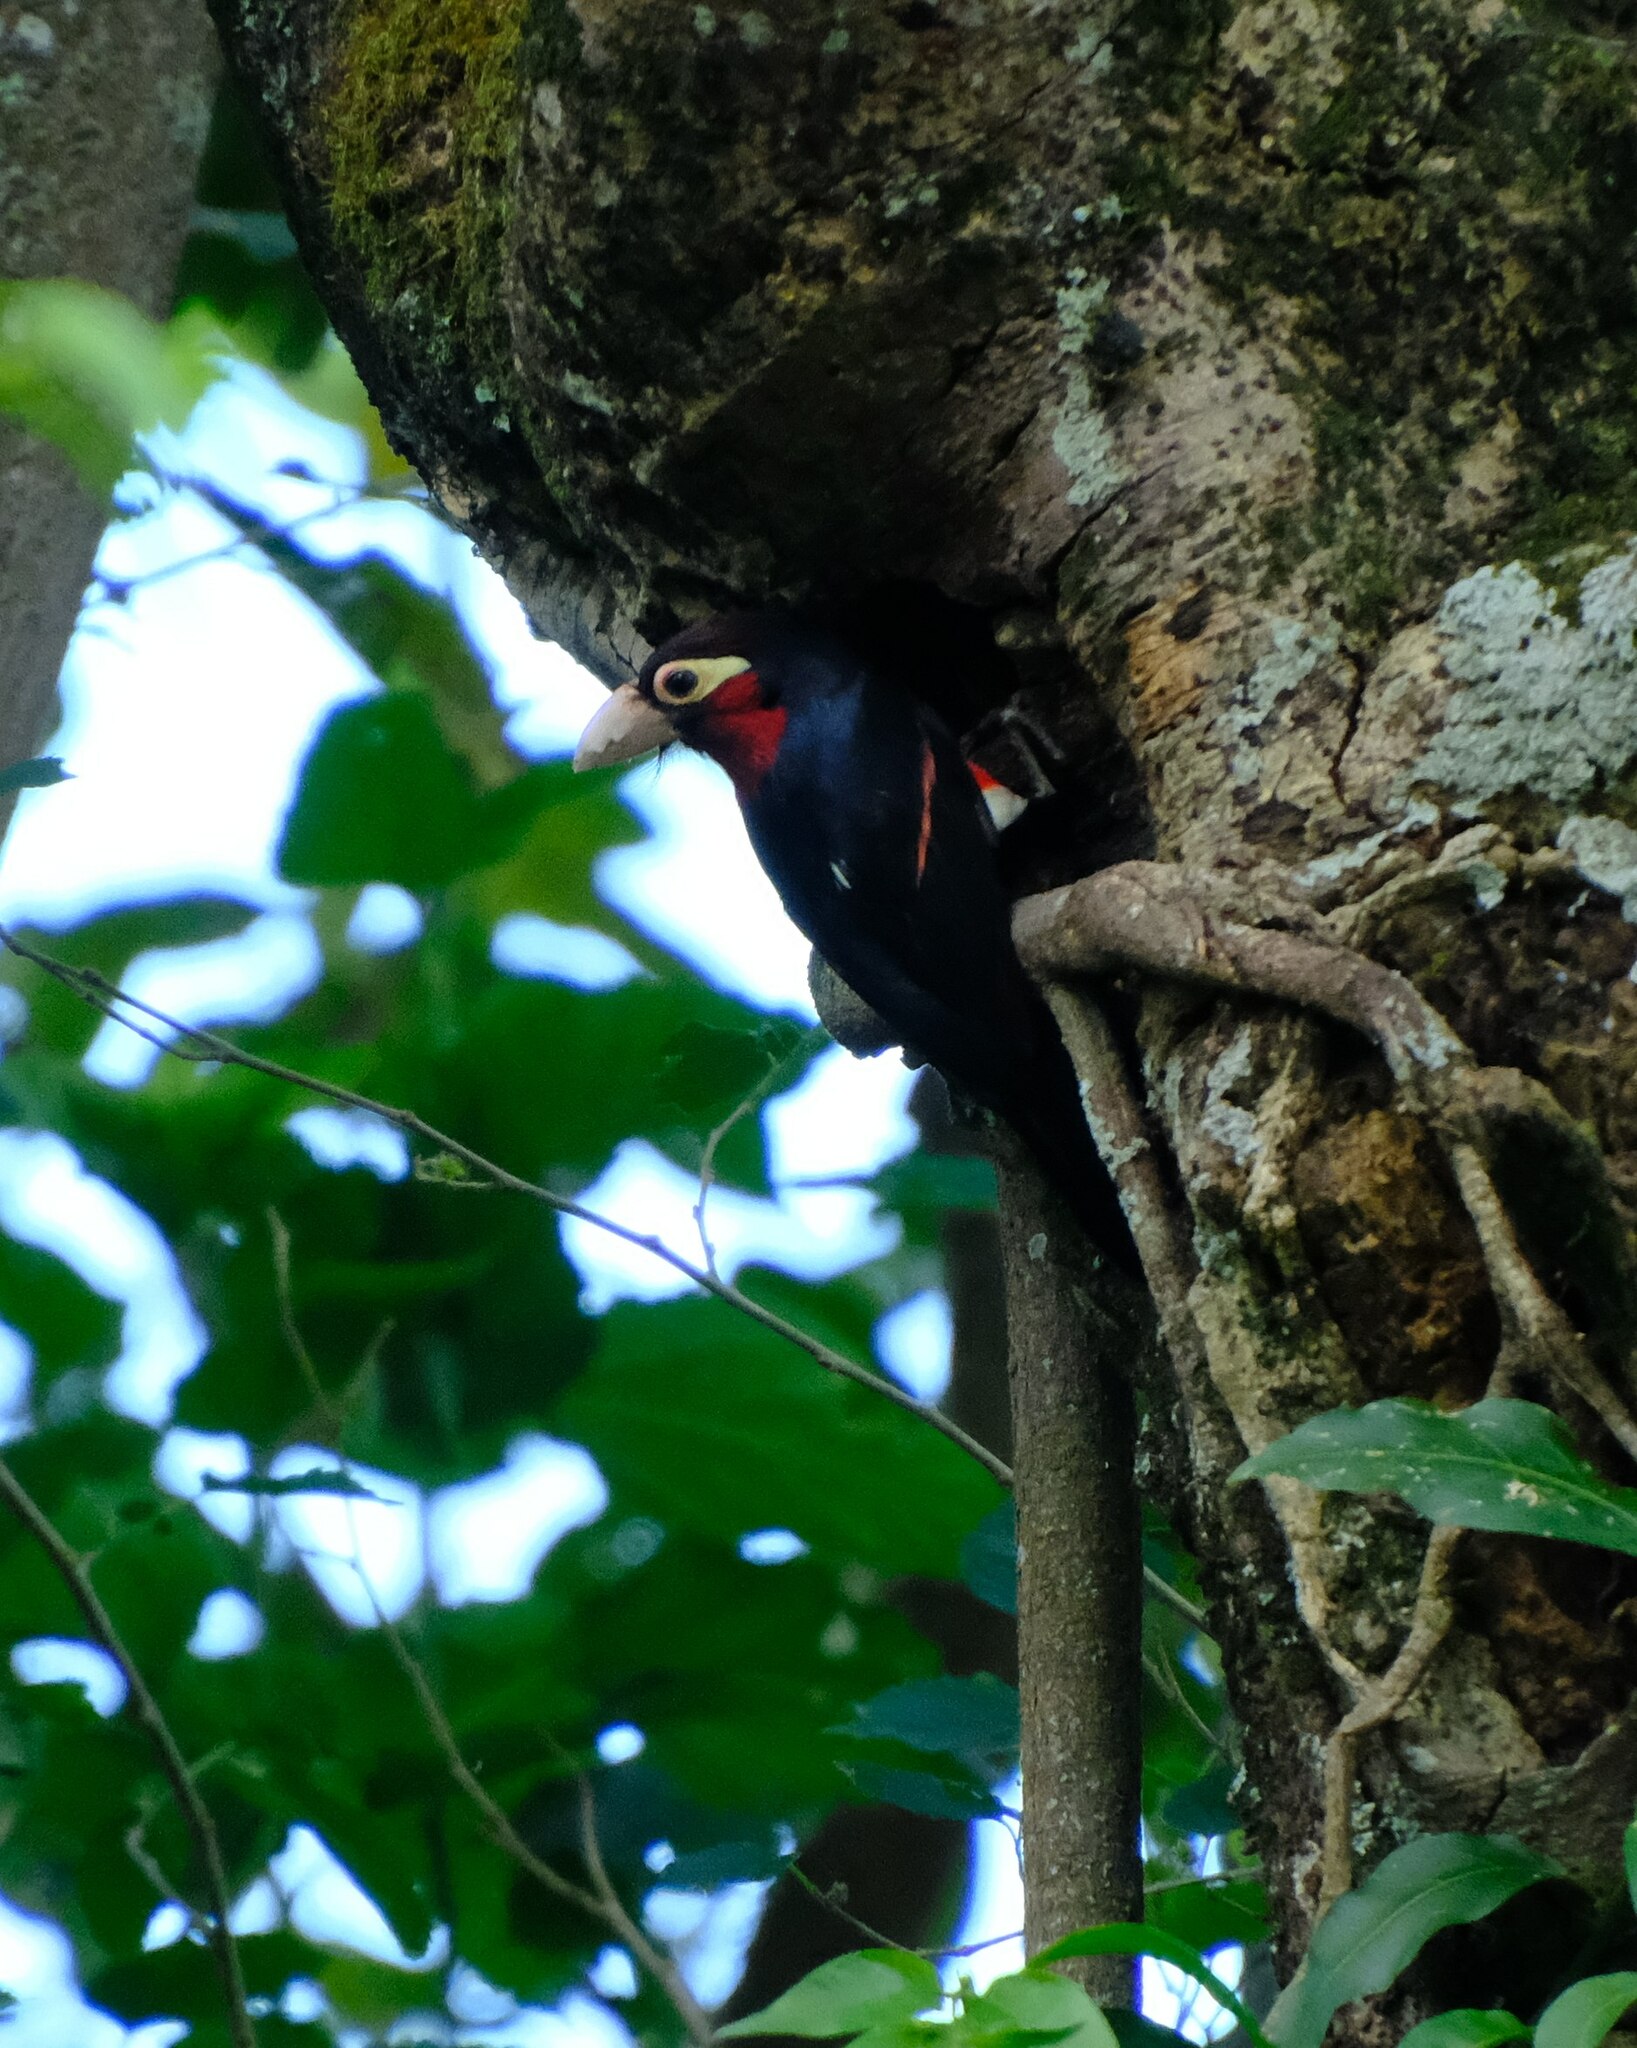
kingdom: Animalia
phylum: Chordata
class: Aves
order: Piciformes
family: Lybiidae
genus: Lybius
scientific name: Lybius bidentatus
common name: Double-toothed barbet
